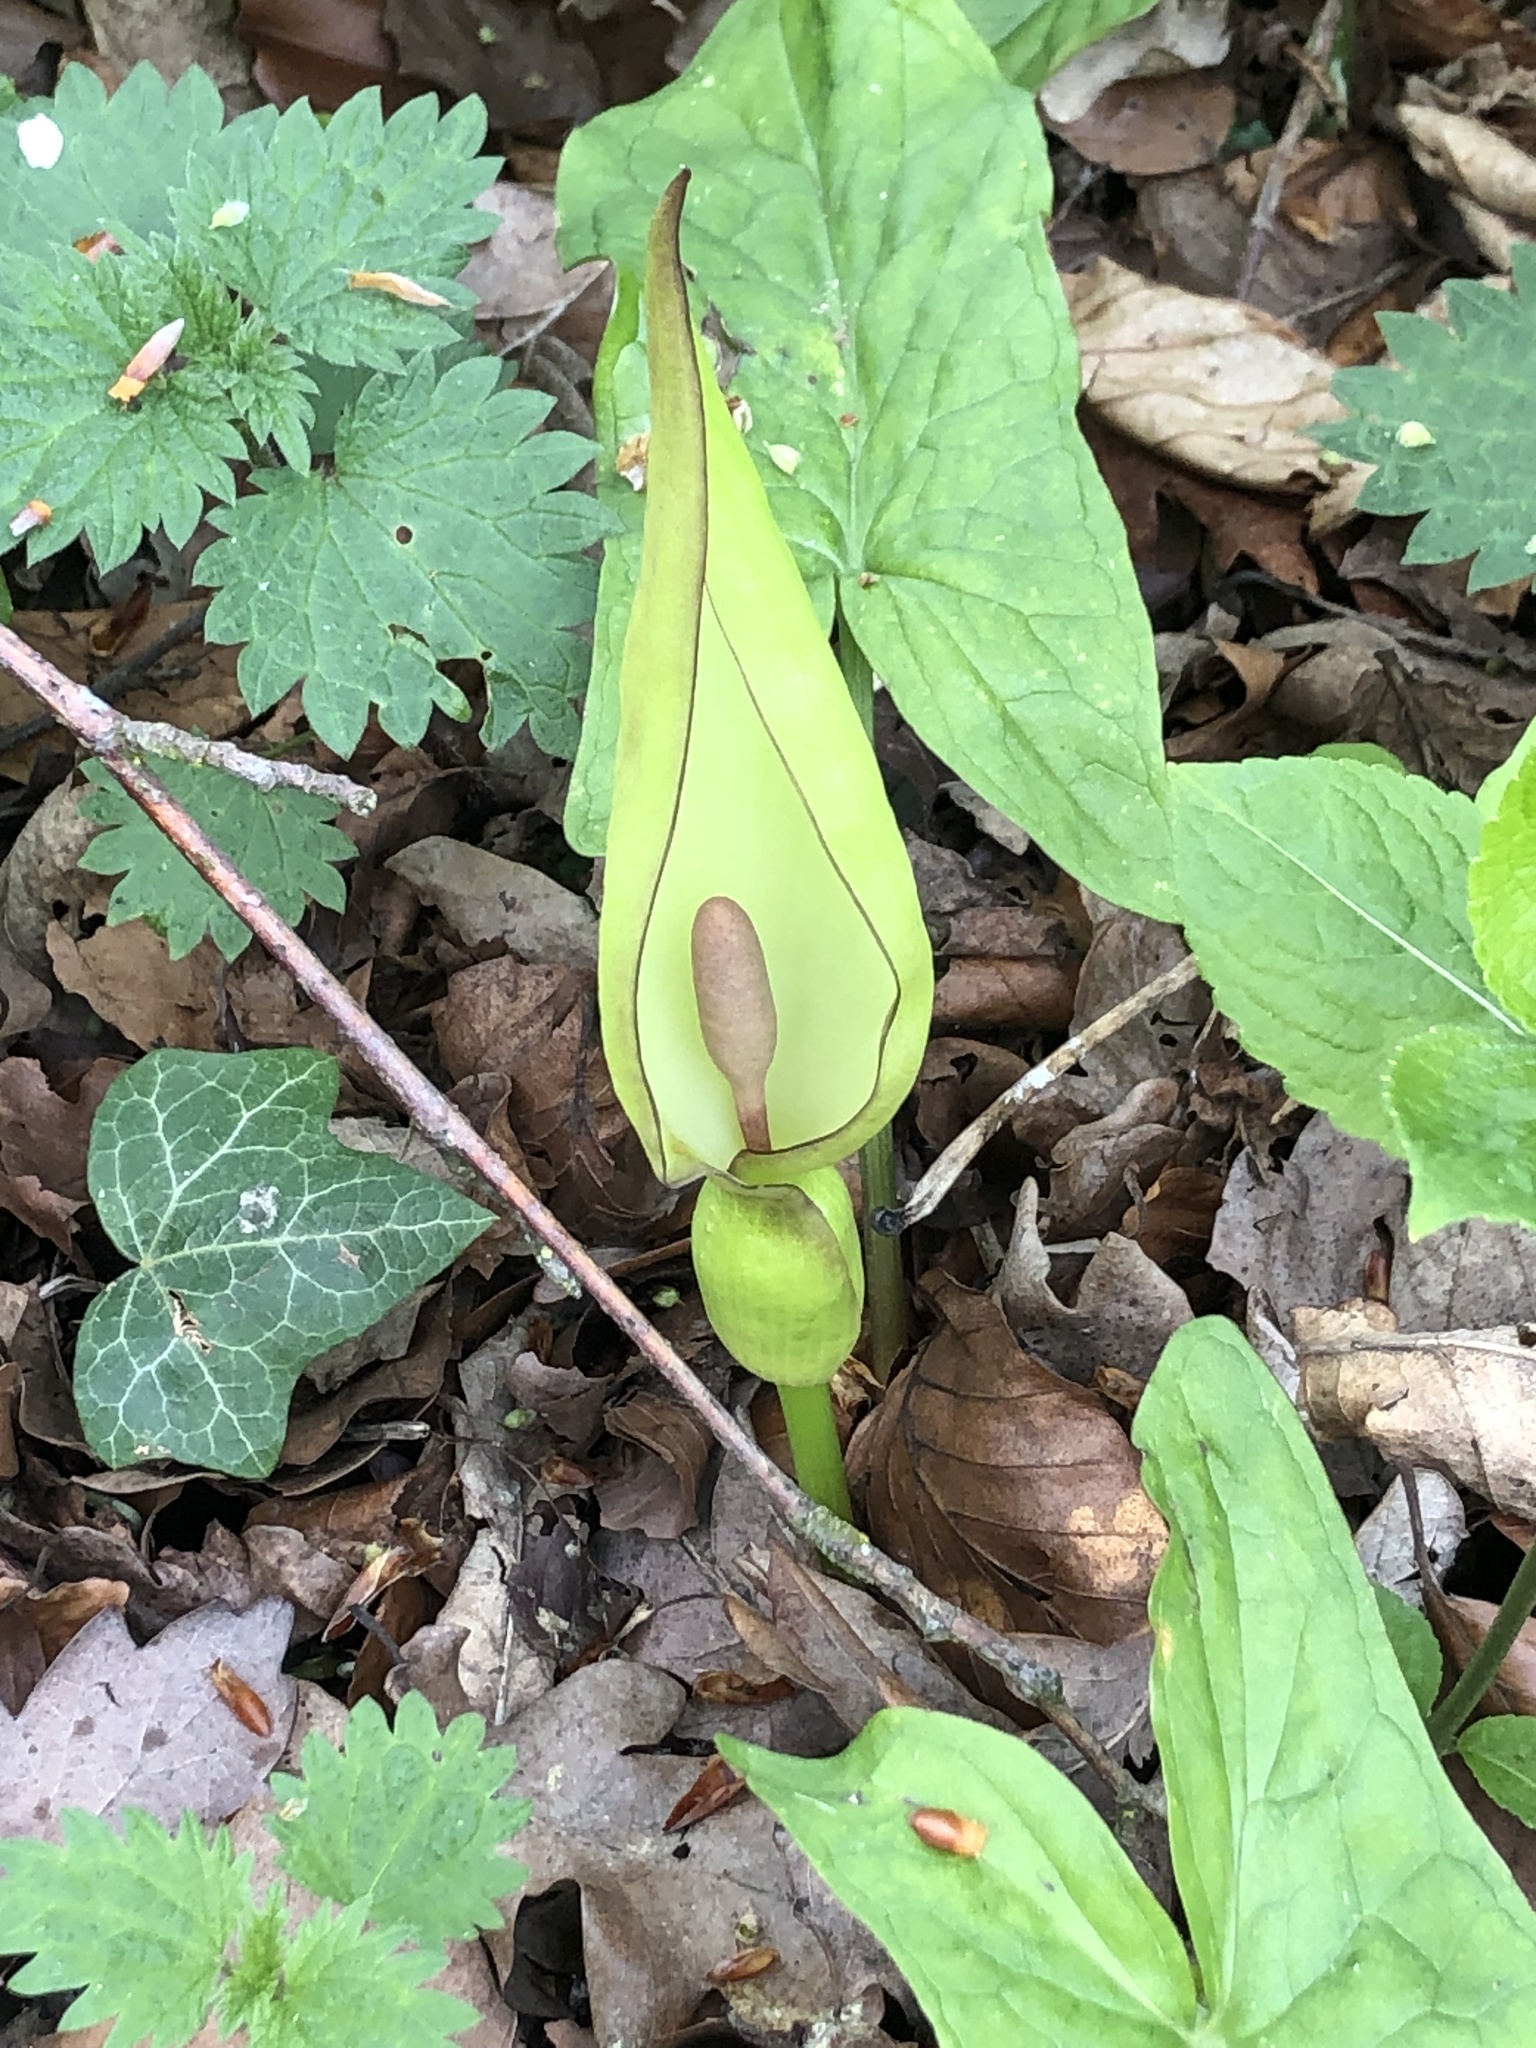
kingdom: Plantae
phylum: Tracheophyta
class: Liliopsida
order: Alismatales
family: Araceae
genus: Arum
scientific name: Arum maculatum
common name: Lords-and-ladies
